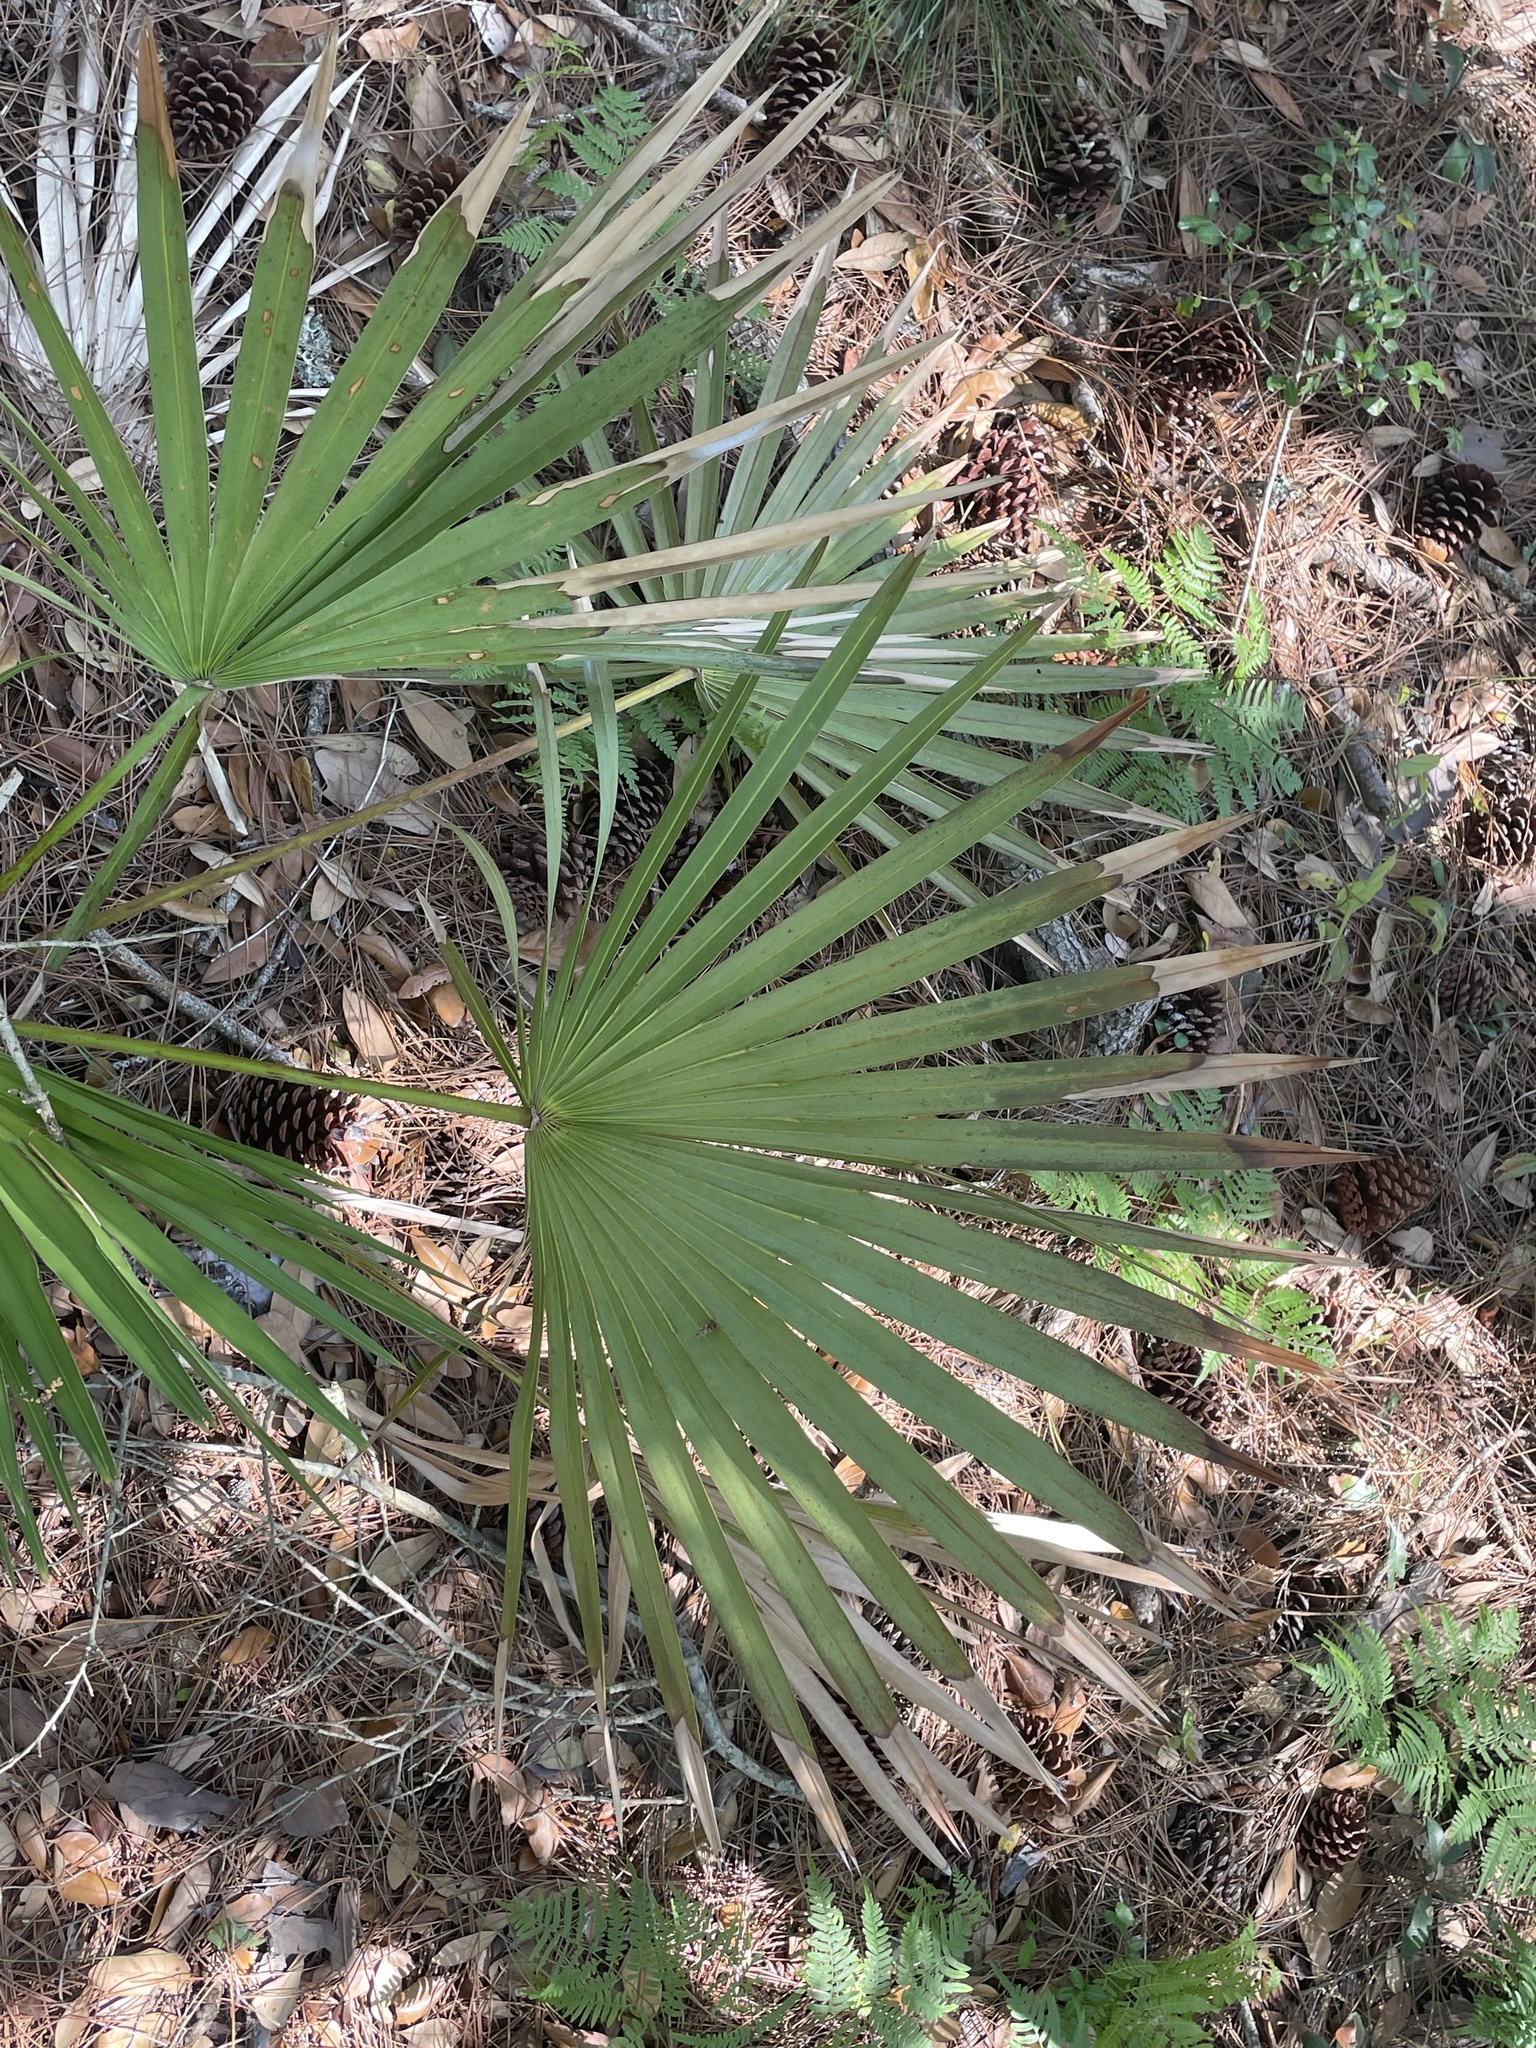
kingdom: Plantae
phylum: Tracheophyta
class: Liliopsida
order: Arecales
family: Arecaceae
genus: Serenoa
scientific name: Serenoa repens
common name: Saw-palmetto
